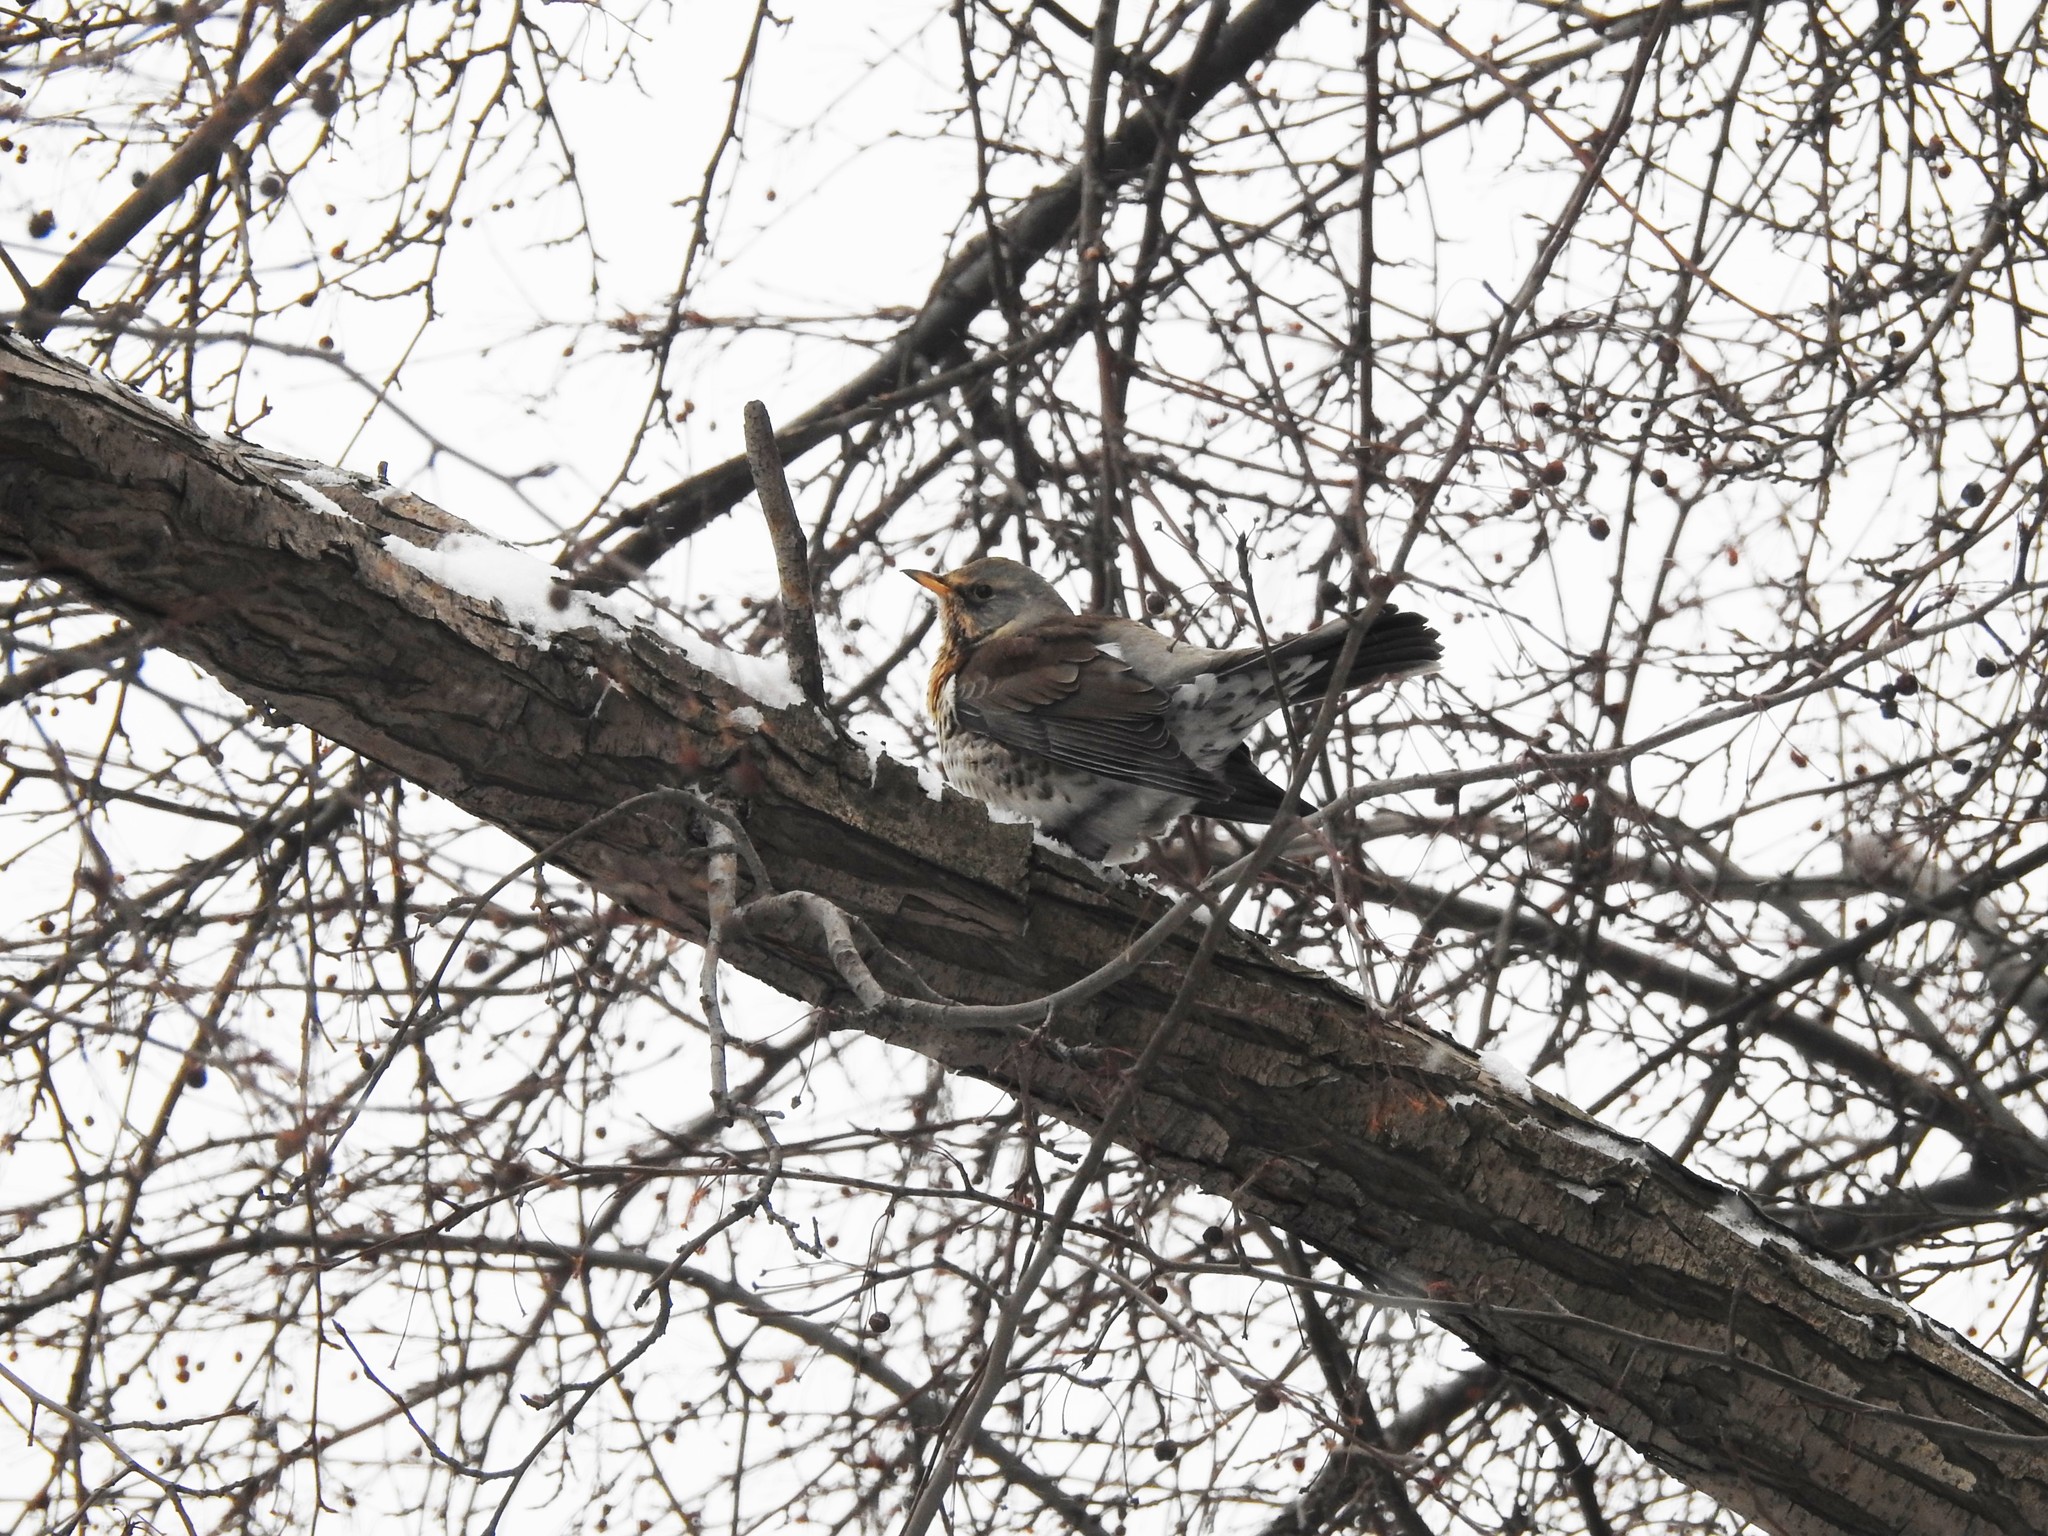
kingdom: Animalia
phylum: Chordata
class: Aves
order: Passeriformes
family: Turdidae
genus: Turdus
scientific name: Turdus pilaris
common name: Fieldfare
